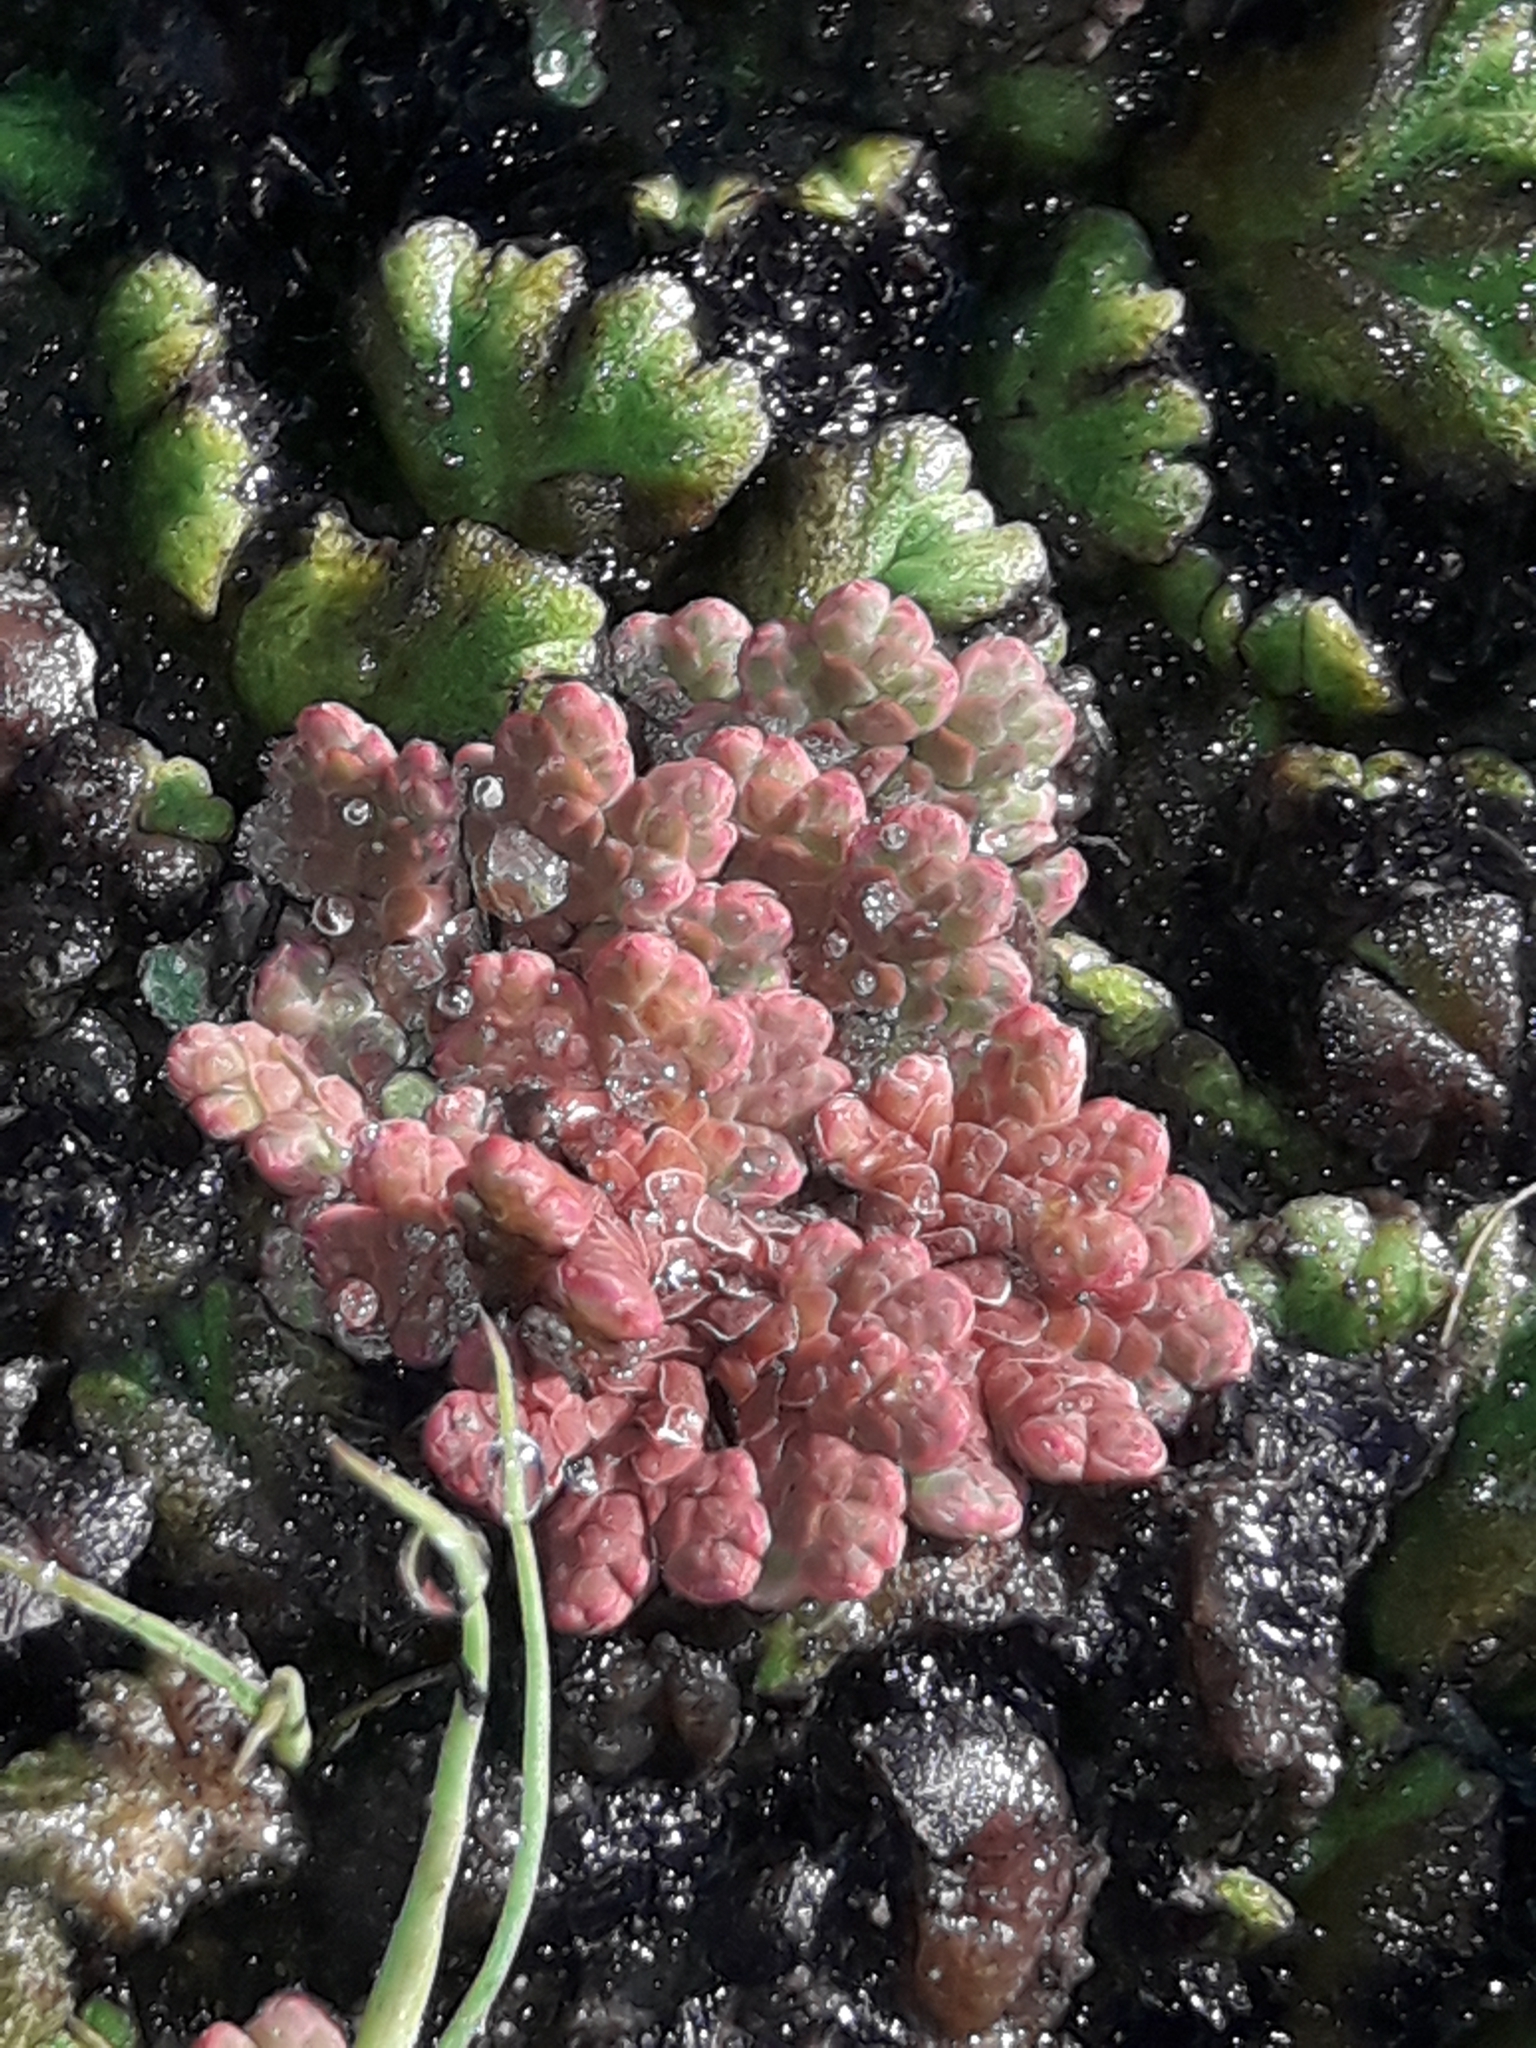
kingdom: Plantae
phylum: Tracheophyta
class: Polypodiopsida
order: Salviniales
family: Salviniaceae
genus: Azolla
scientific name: Azolla rubra
